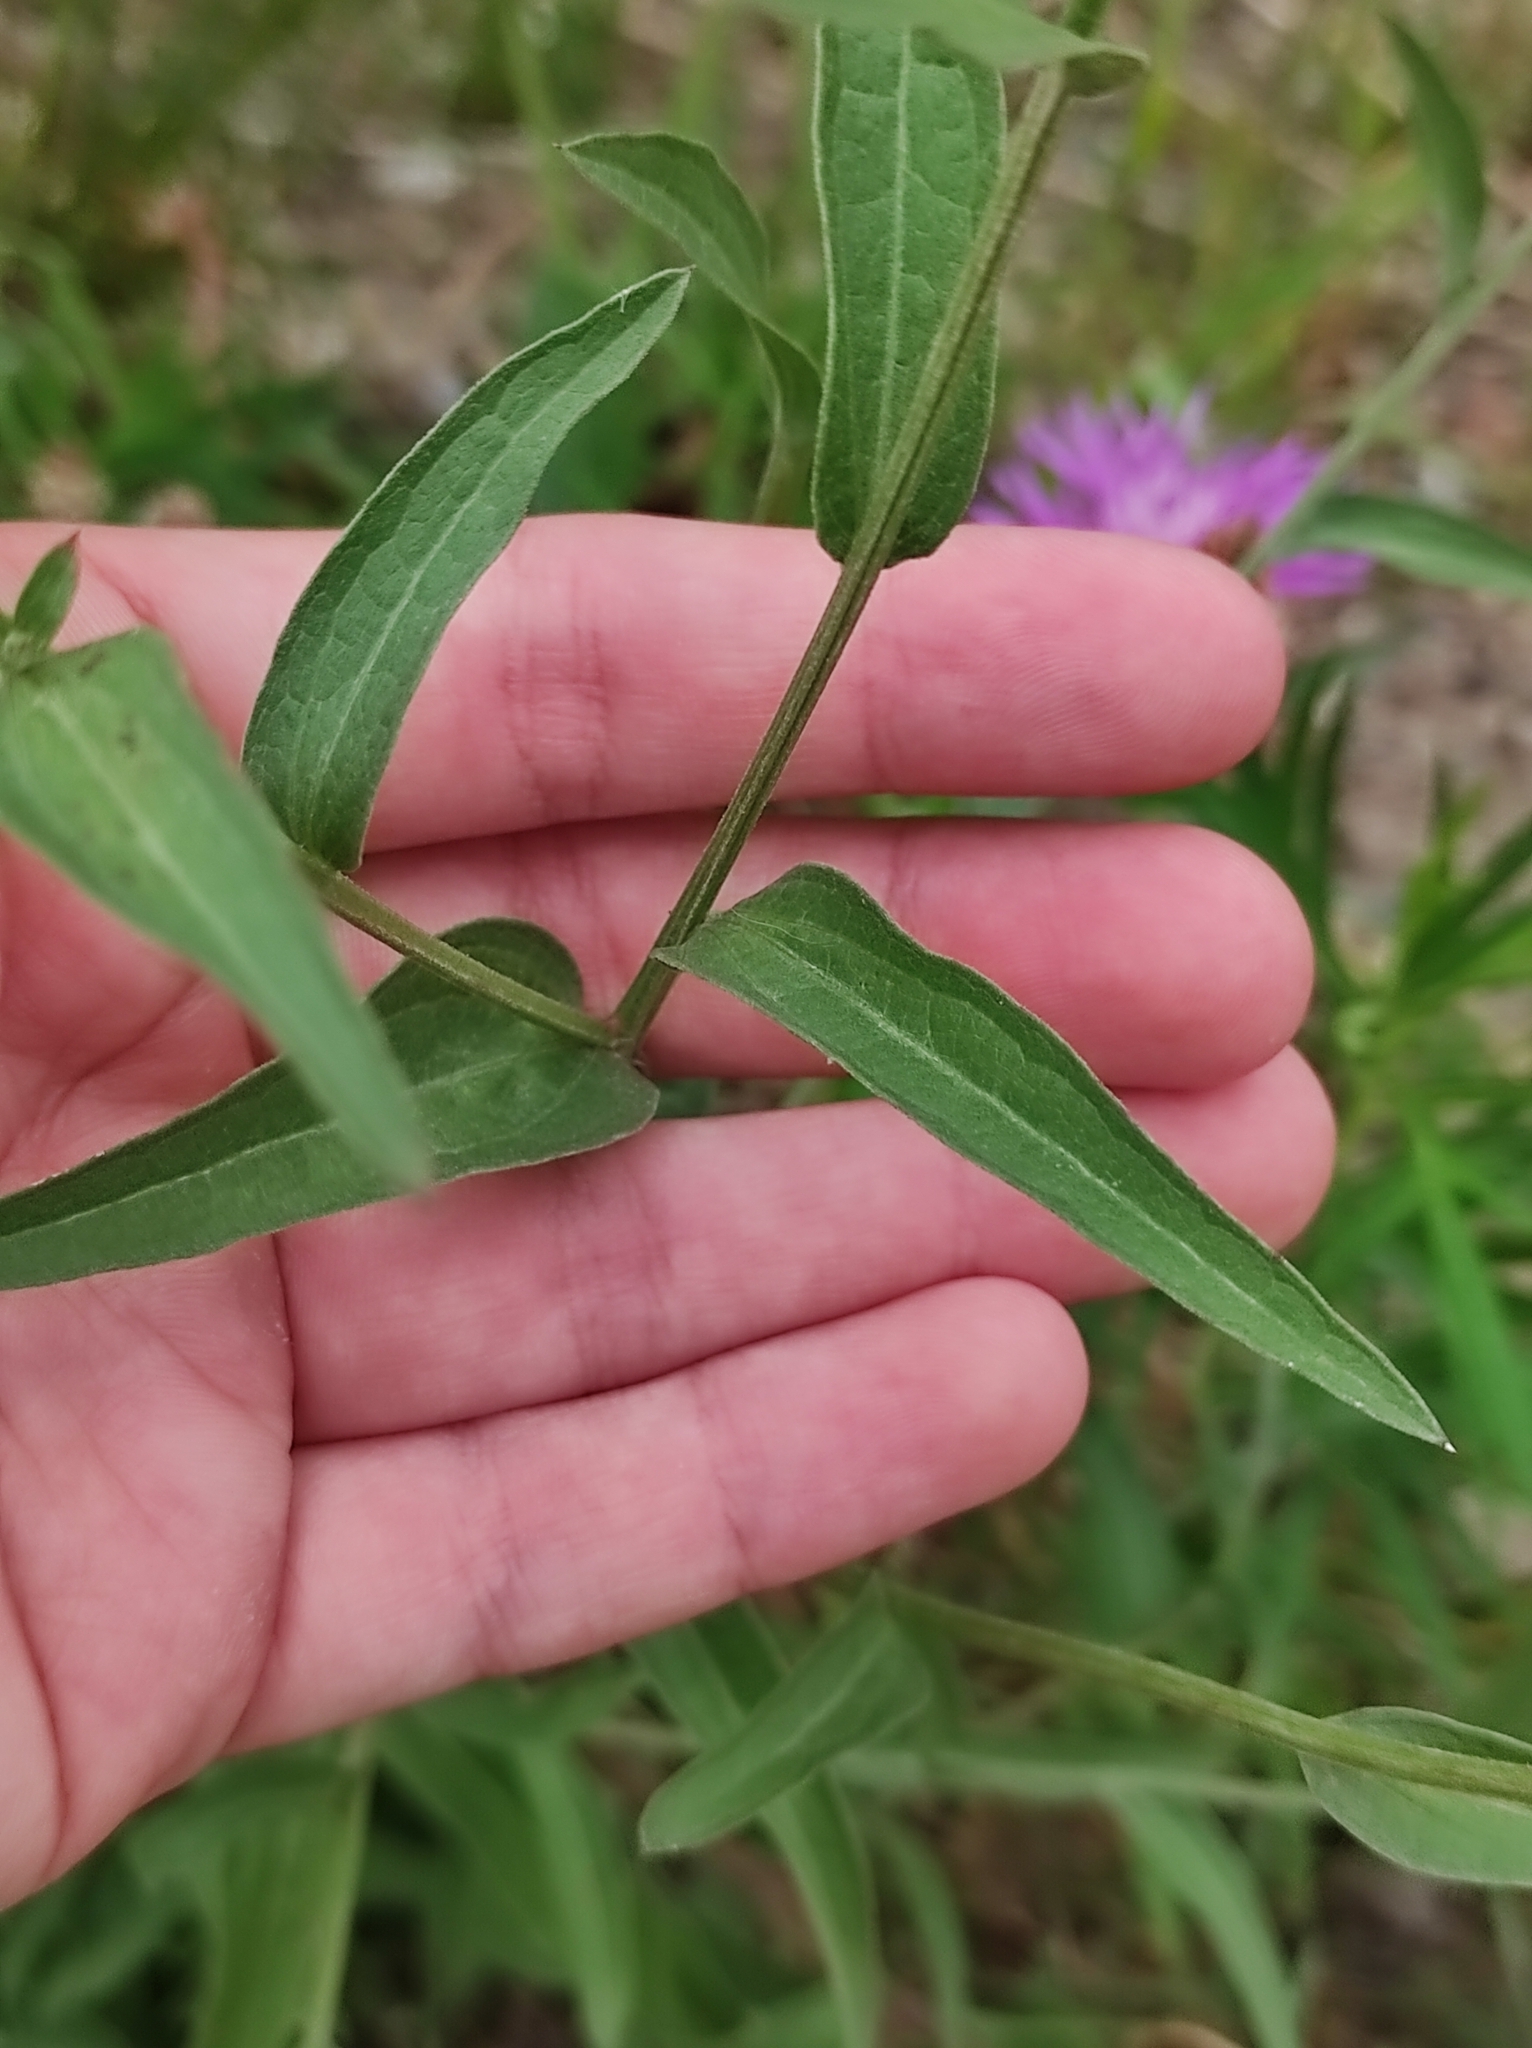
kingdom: Plantae
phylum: Tracheophyta
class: Magnoliopsida
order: Asterales
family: Asteraceae
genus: Centaurea
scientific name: Centaurea jacea
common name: Brown knapweed
